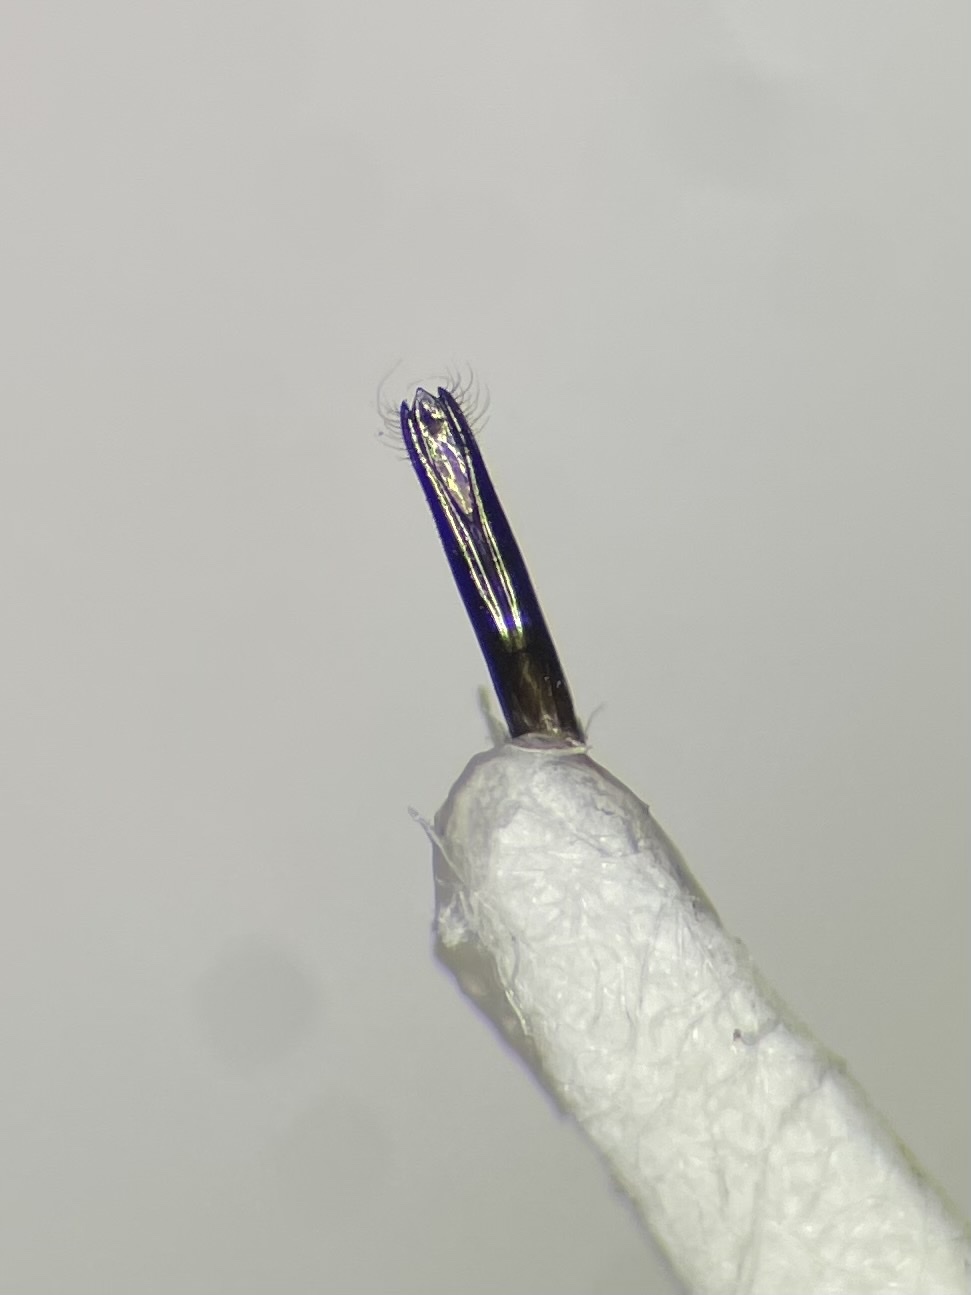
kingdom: Animalia
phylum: Arthropoda
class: Insecta
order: Coleoptera
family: Buprestidae
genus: Agrilus
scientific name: Agrilus cephalicus
